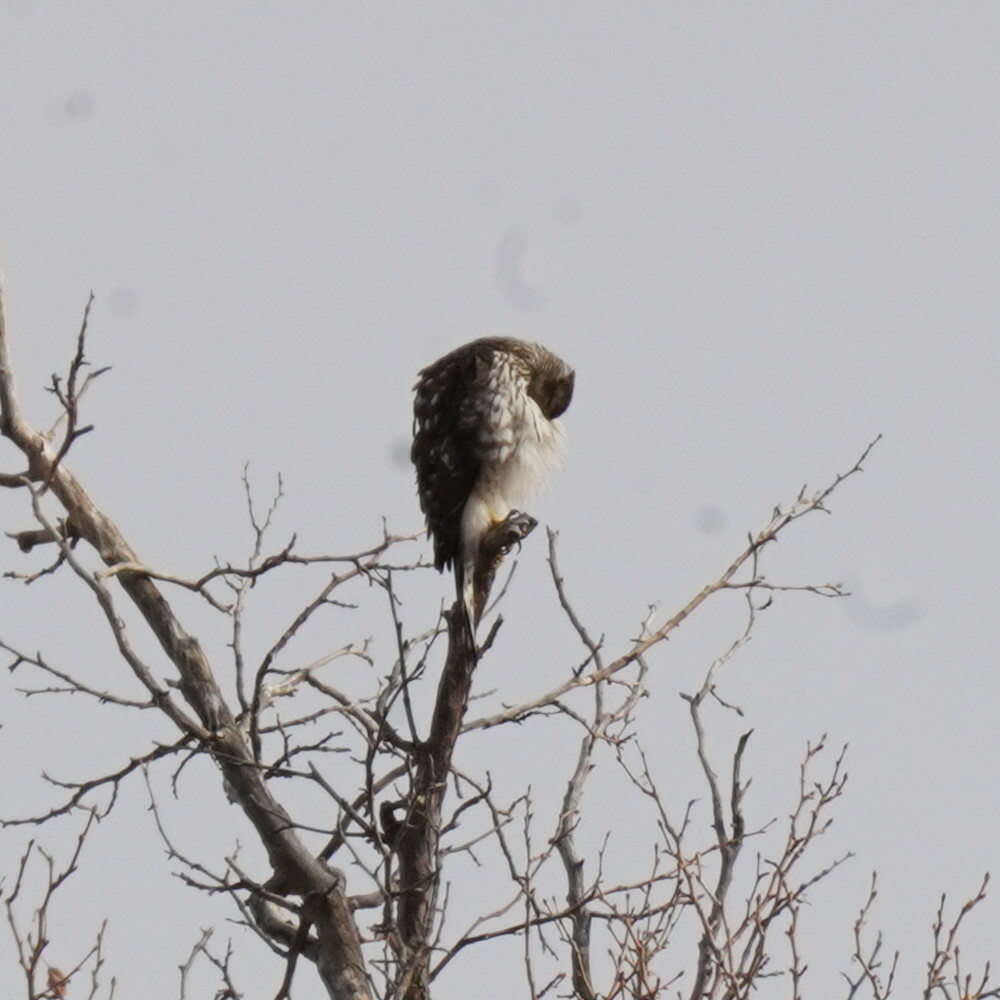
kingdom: Animalia
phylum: Chordata
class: Aves
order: Accipitriformes
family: Accipitridae
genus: Accipiter
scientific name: Accipiter cooperii
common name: Cooper's hawk
